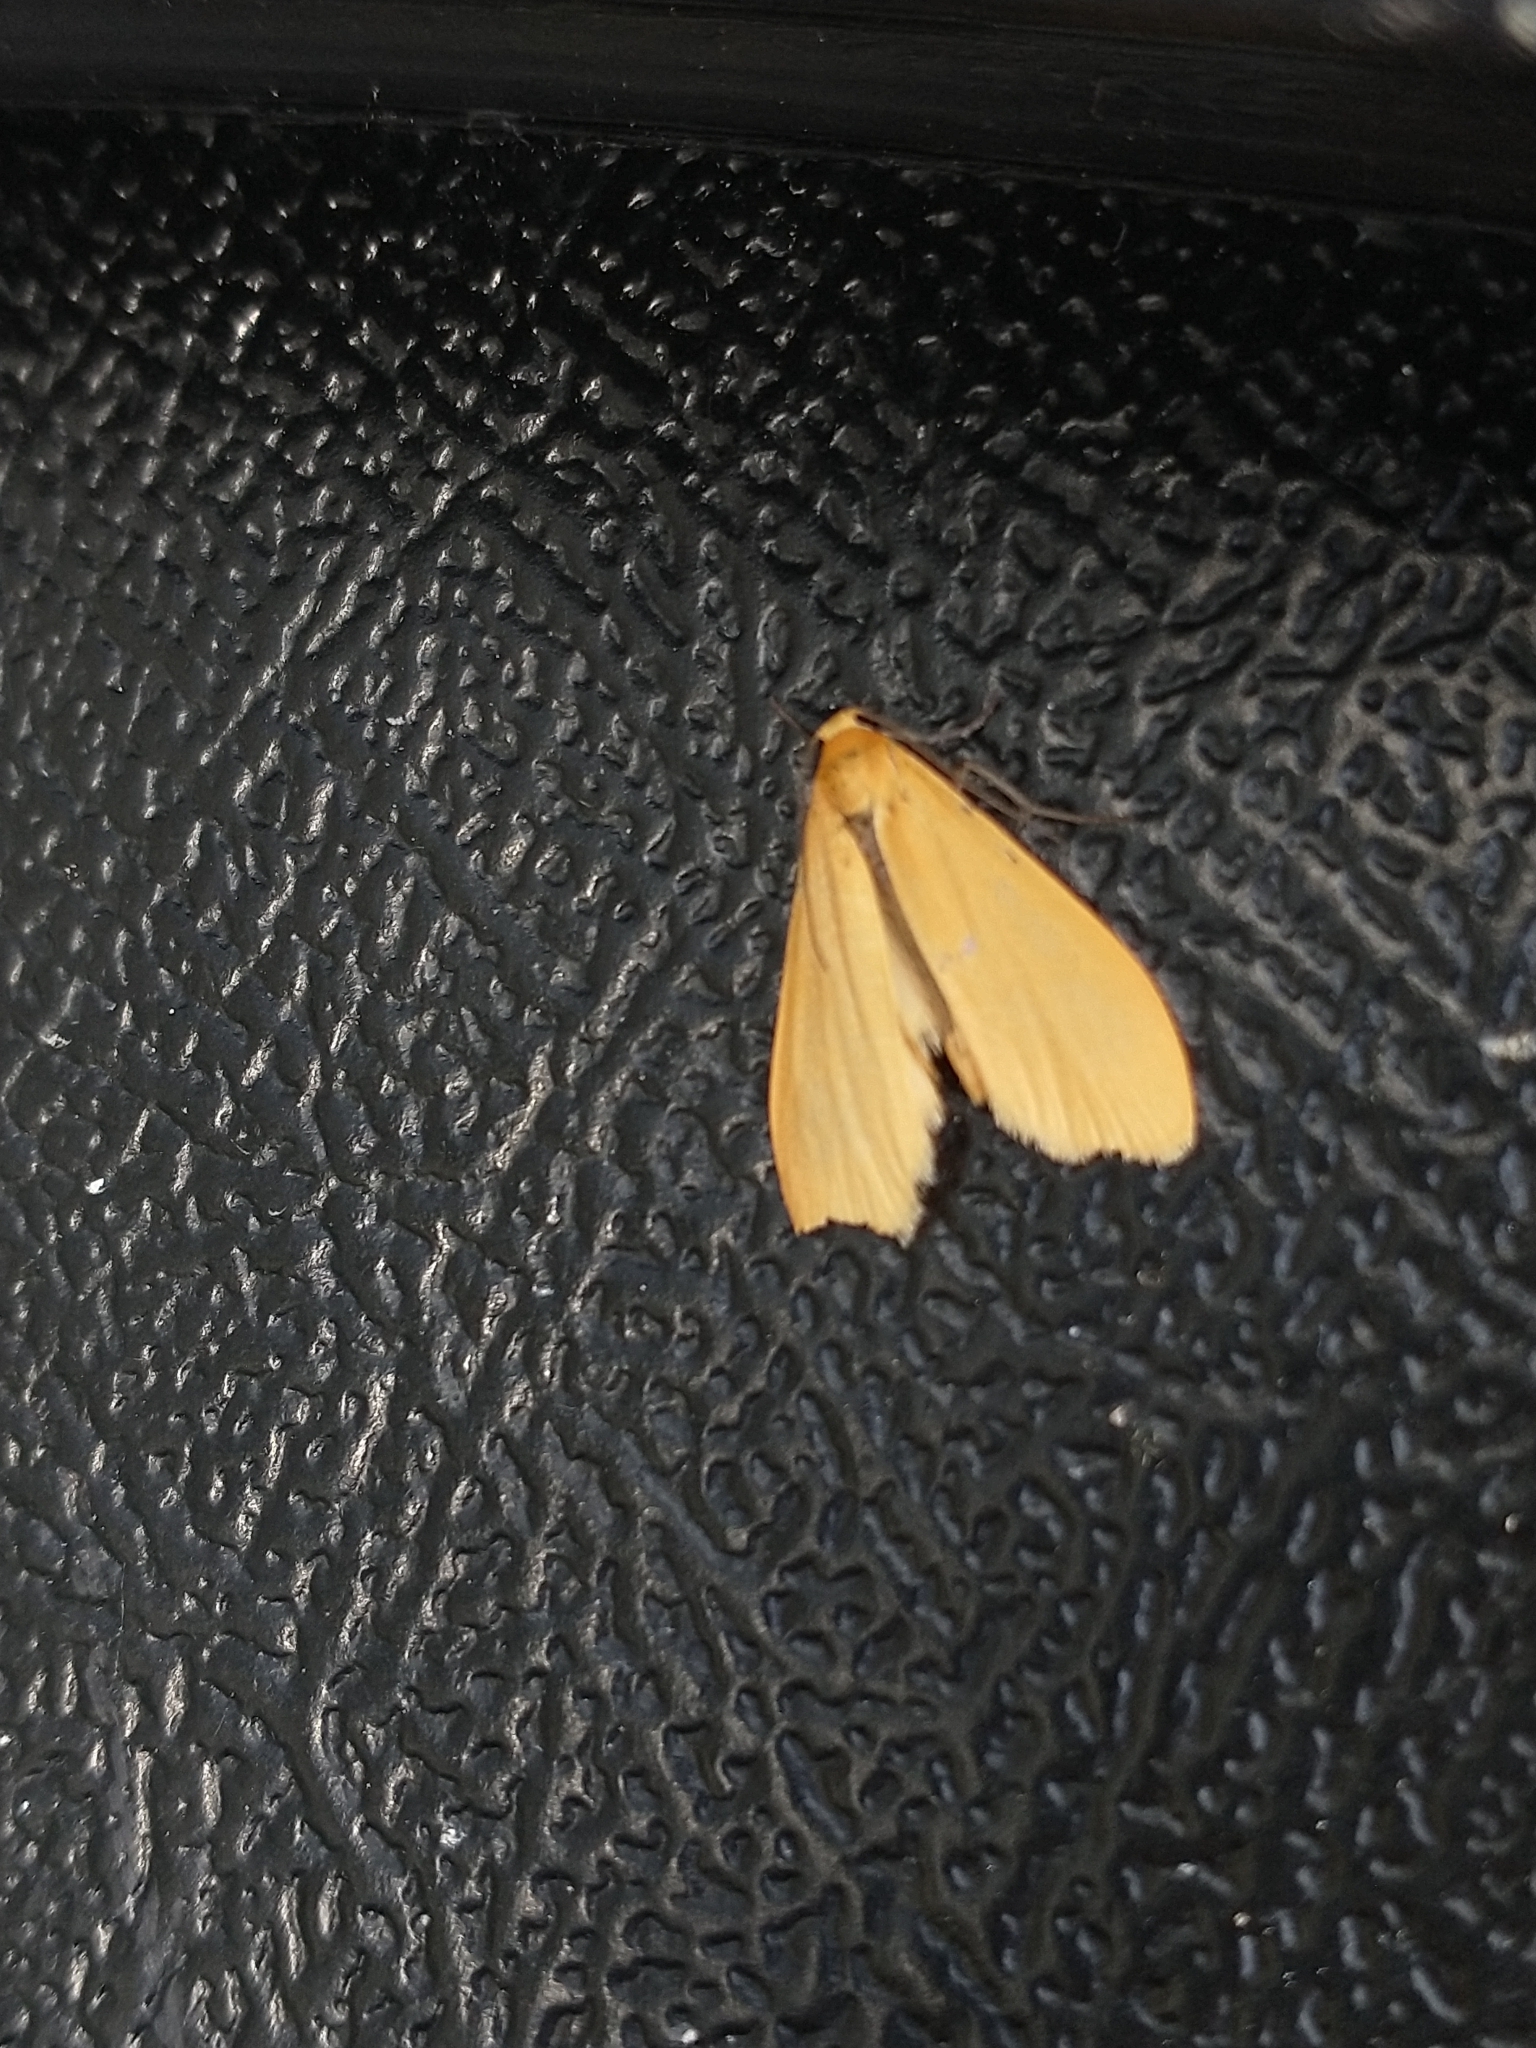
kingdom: Animalia
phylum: Arthropoda
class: Insecta
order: Lepidoptera
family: Erebidae
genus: Wittia
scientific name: Wittia sororcula
